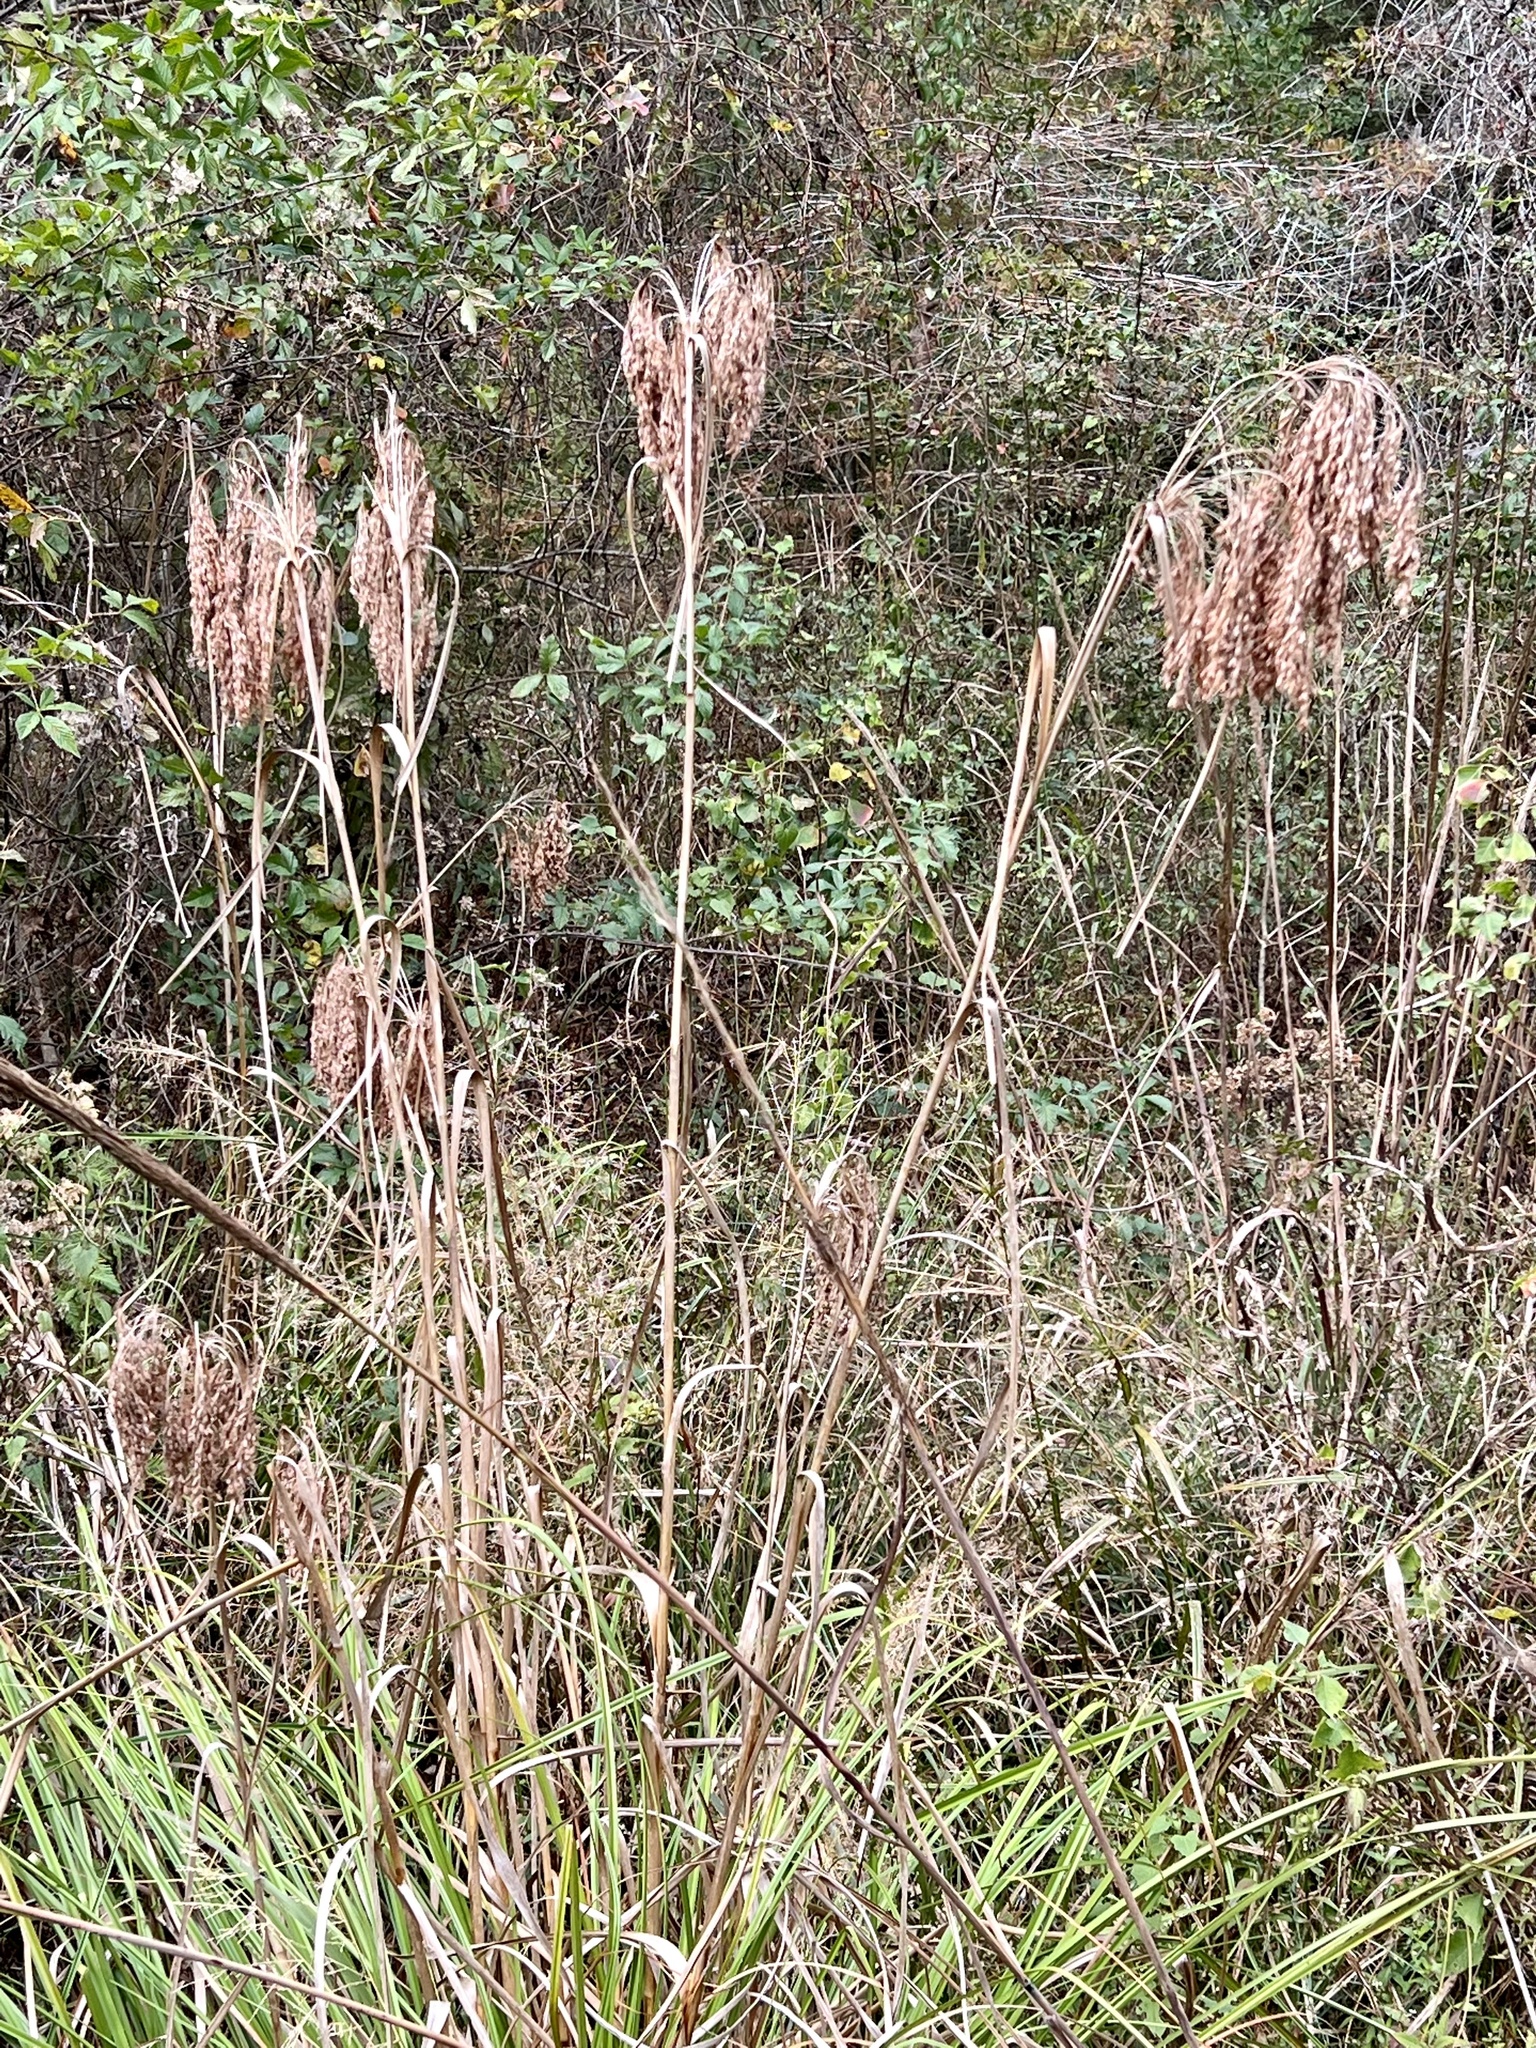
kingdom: Plantae
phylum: Tracheophyta
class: Liliopsida
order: Poales
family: Cyperaceae
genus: Scirpus
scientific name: Scirpus cyperinus
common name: Black-sheathed bulrush
